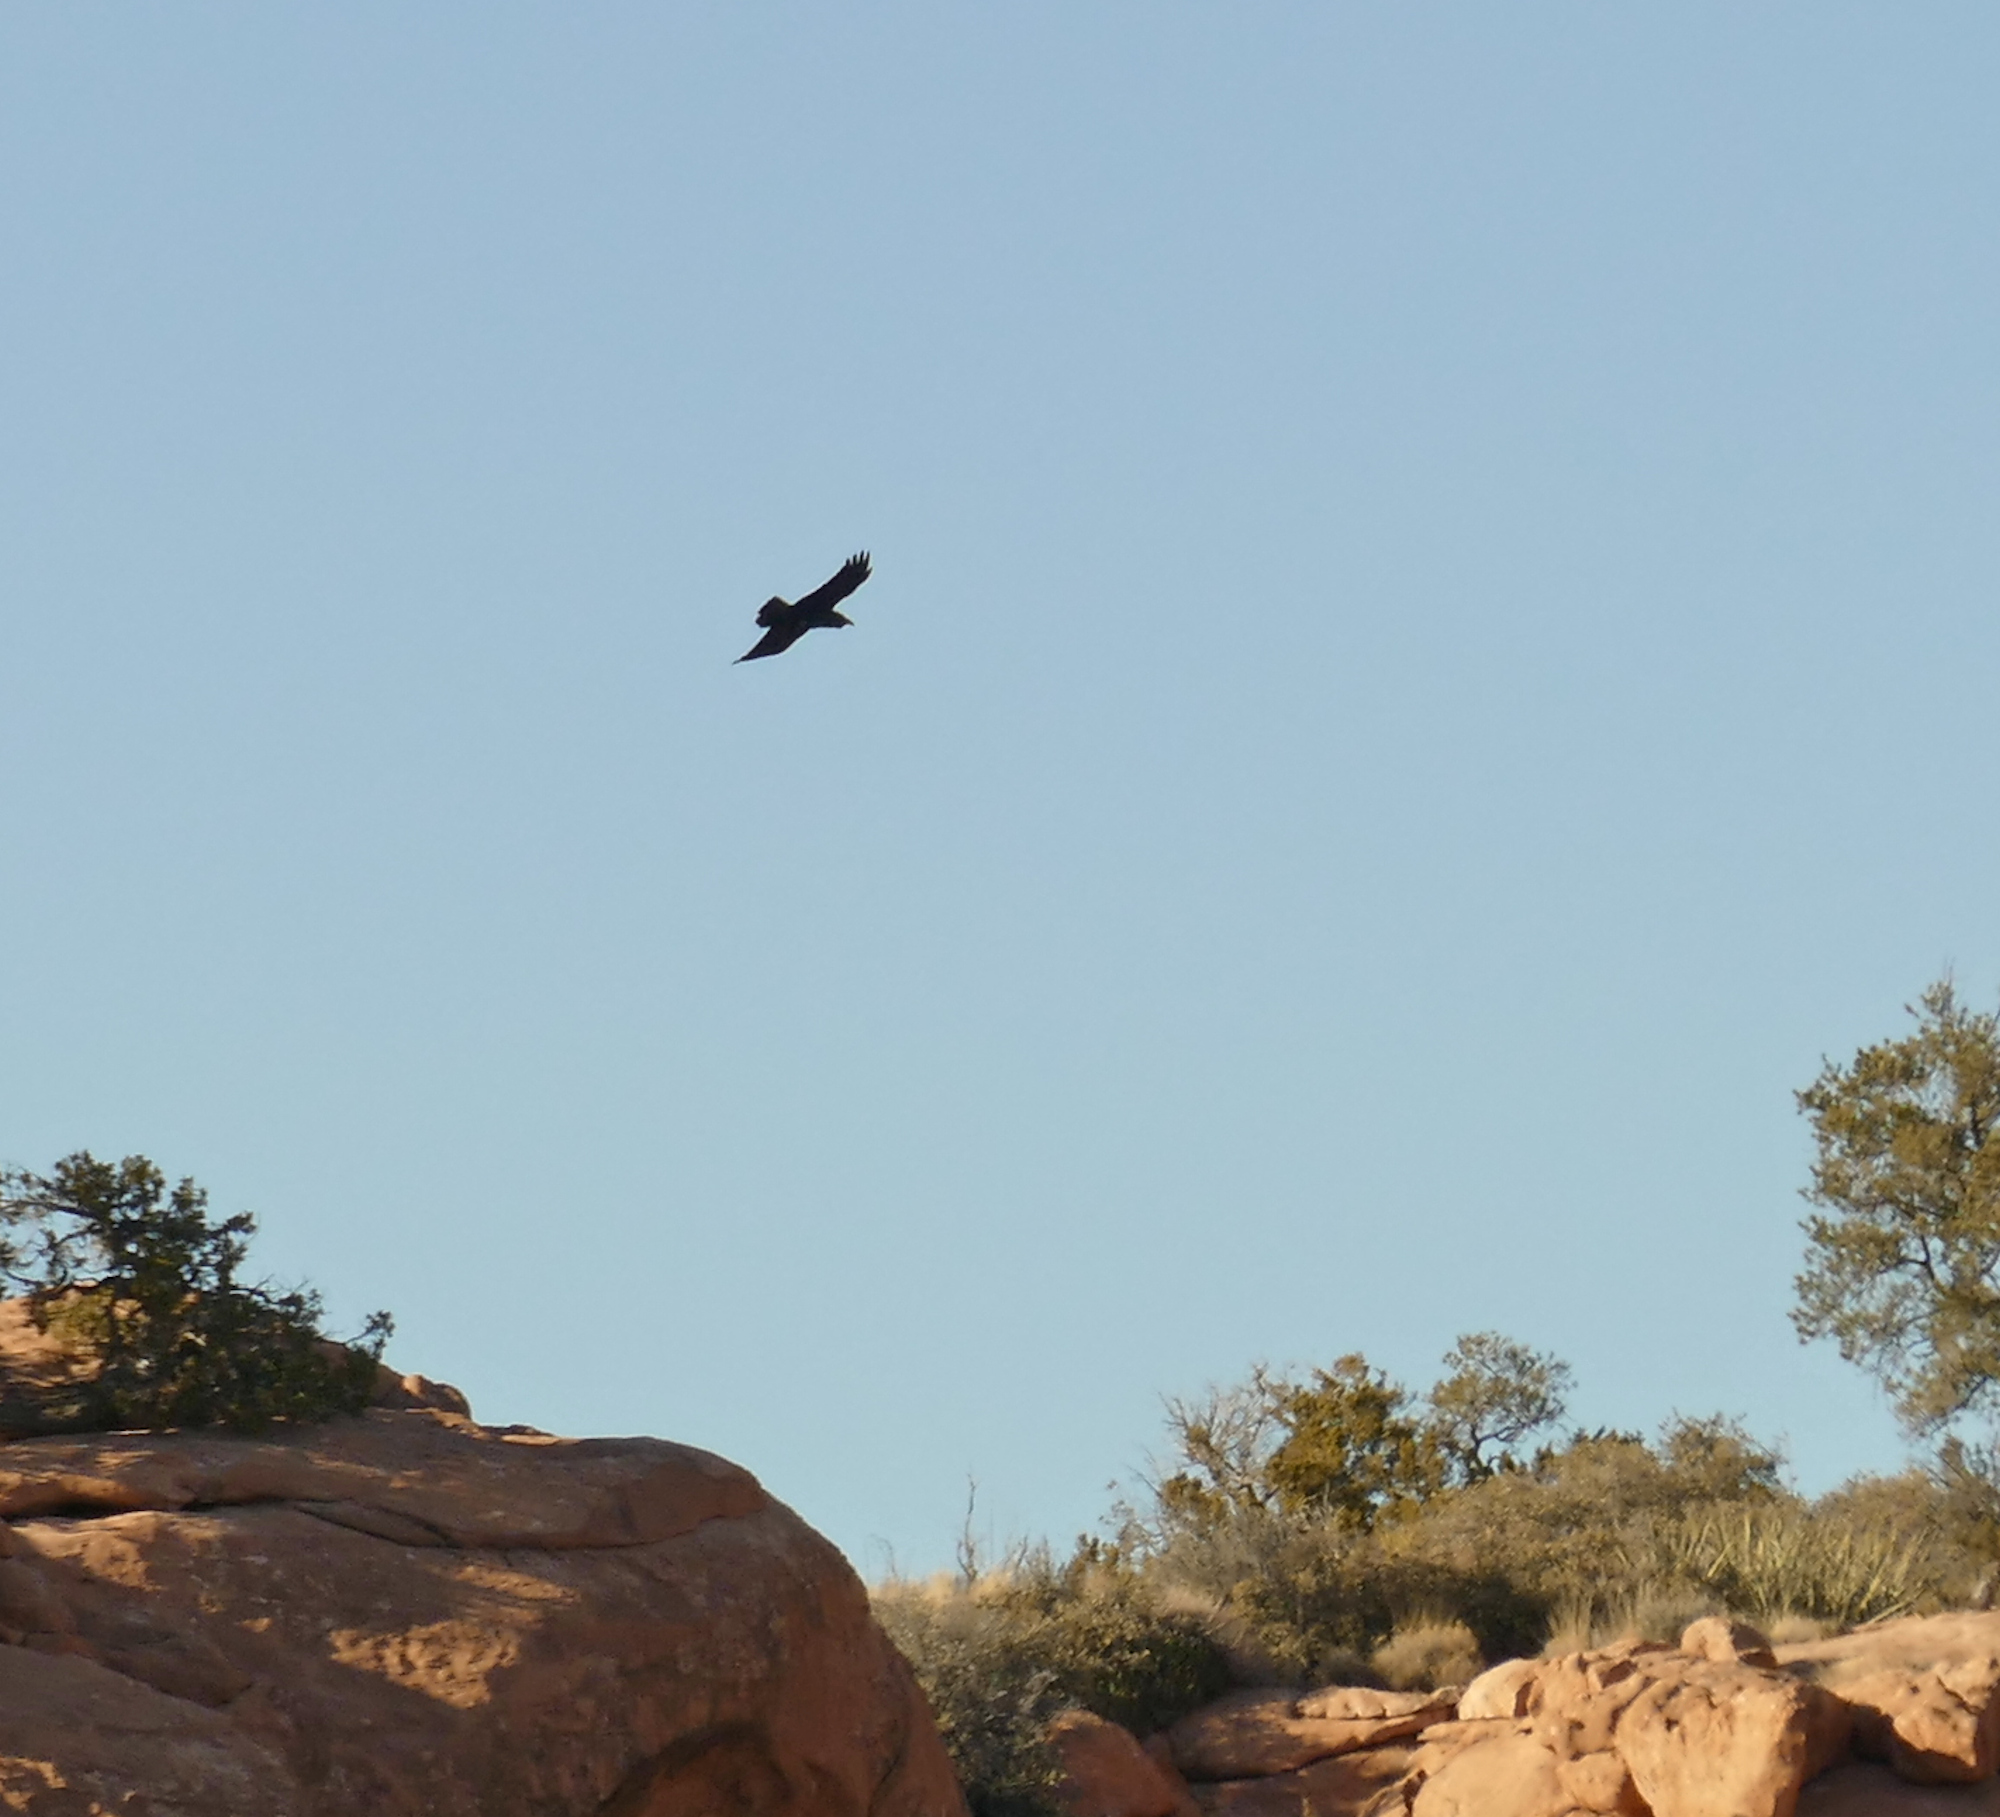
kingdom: Animalia
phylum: Chordata
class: Aves
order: Passeriformes
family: Corvidae
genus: Corvus
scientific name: Corvus corax
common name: Common raven
